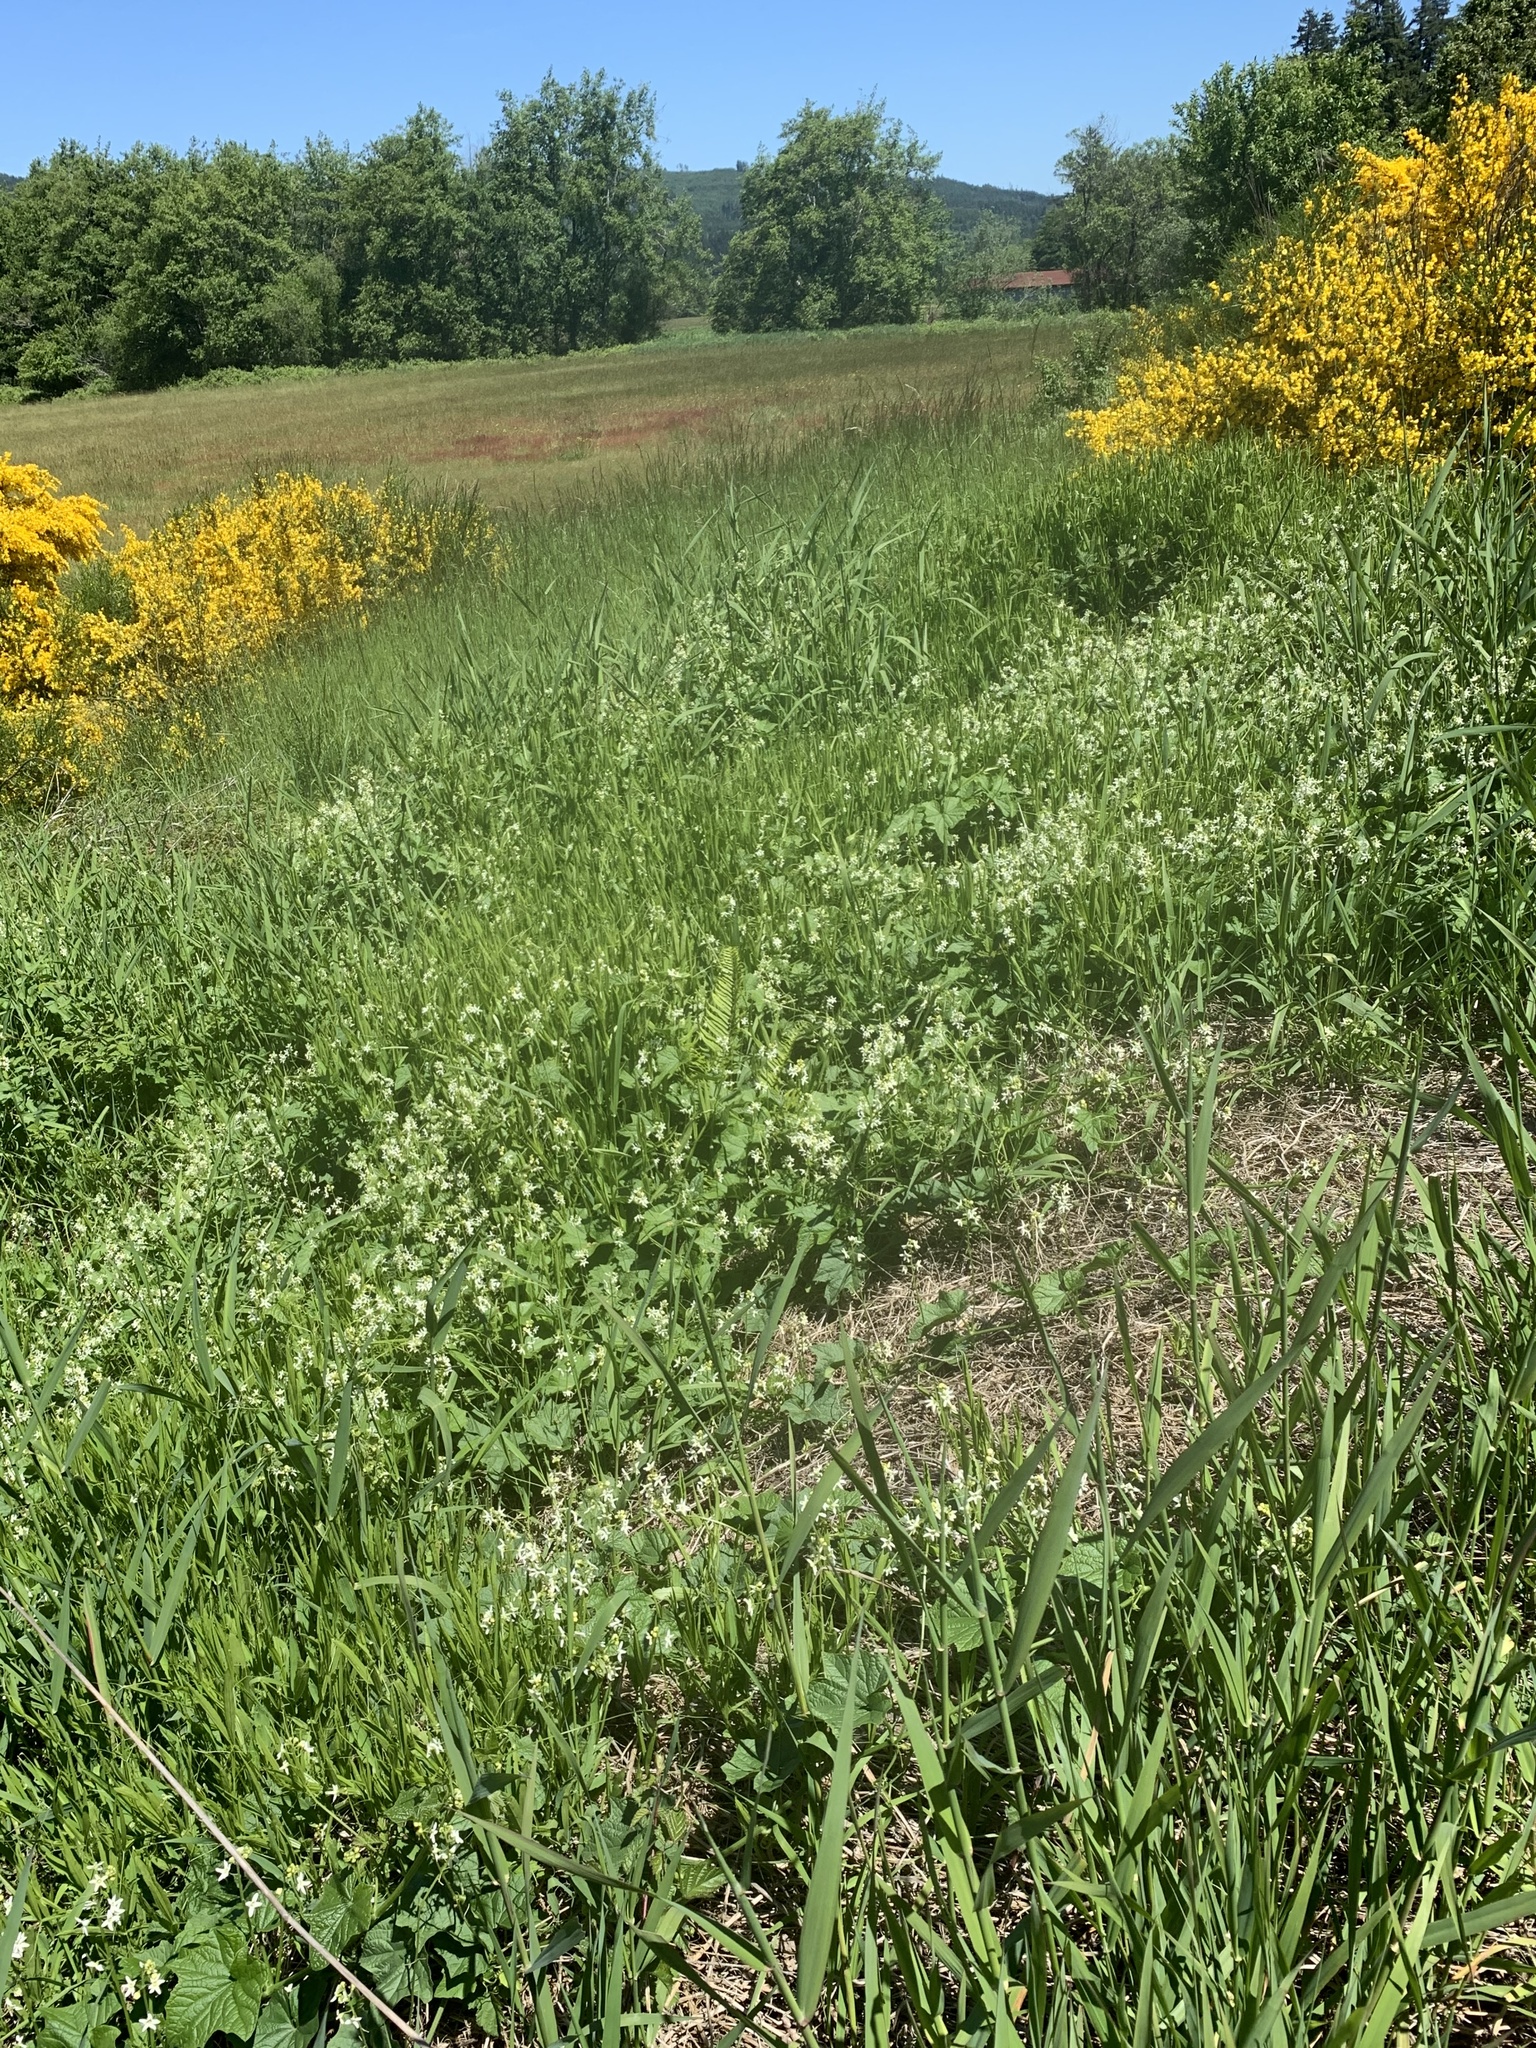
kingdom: Plantae
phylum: Tracheophyta
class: Magnoliopsida
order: Cucurbitales
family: Cucurbitaceae
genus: Marah
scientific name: Marah oregana
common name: Coastal manroot
